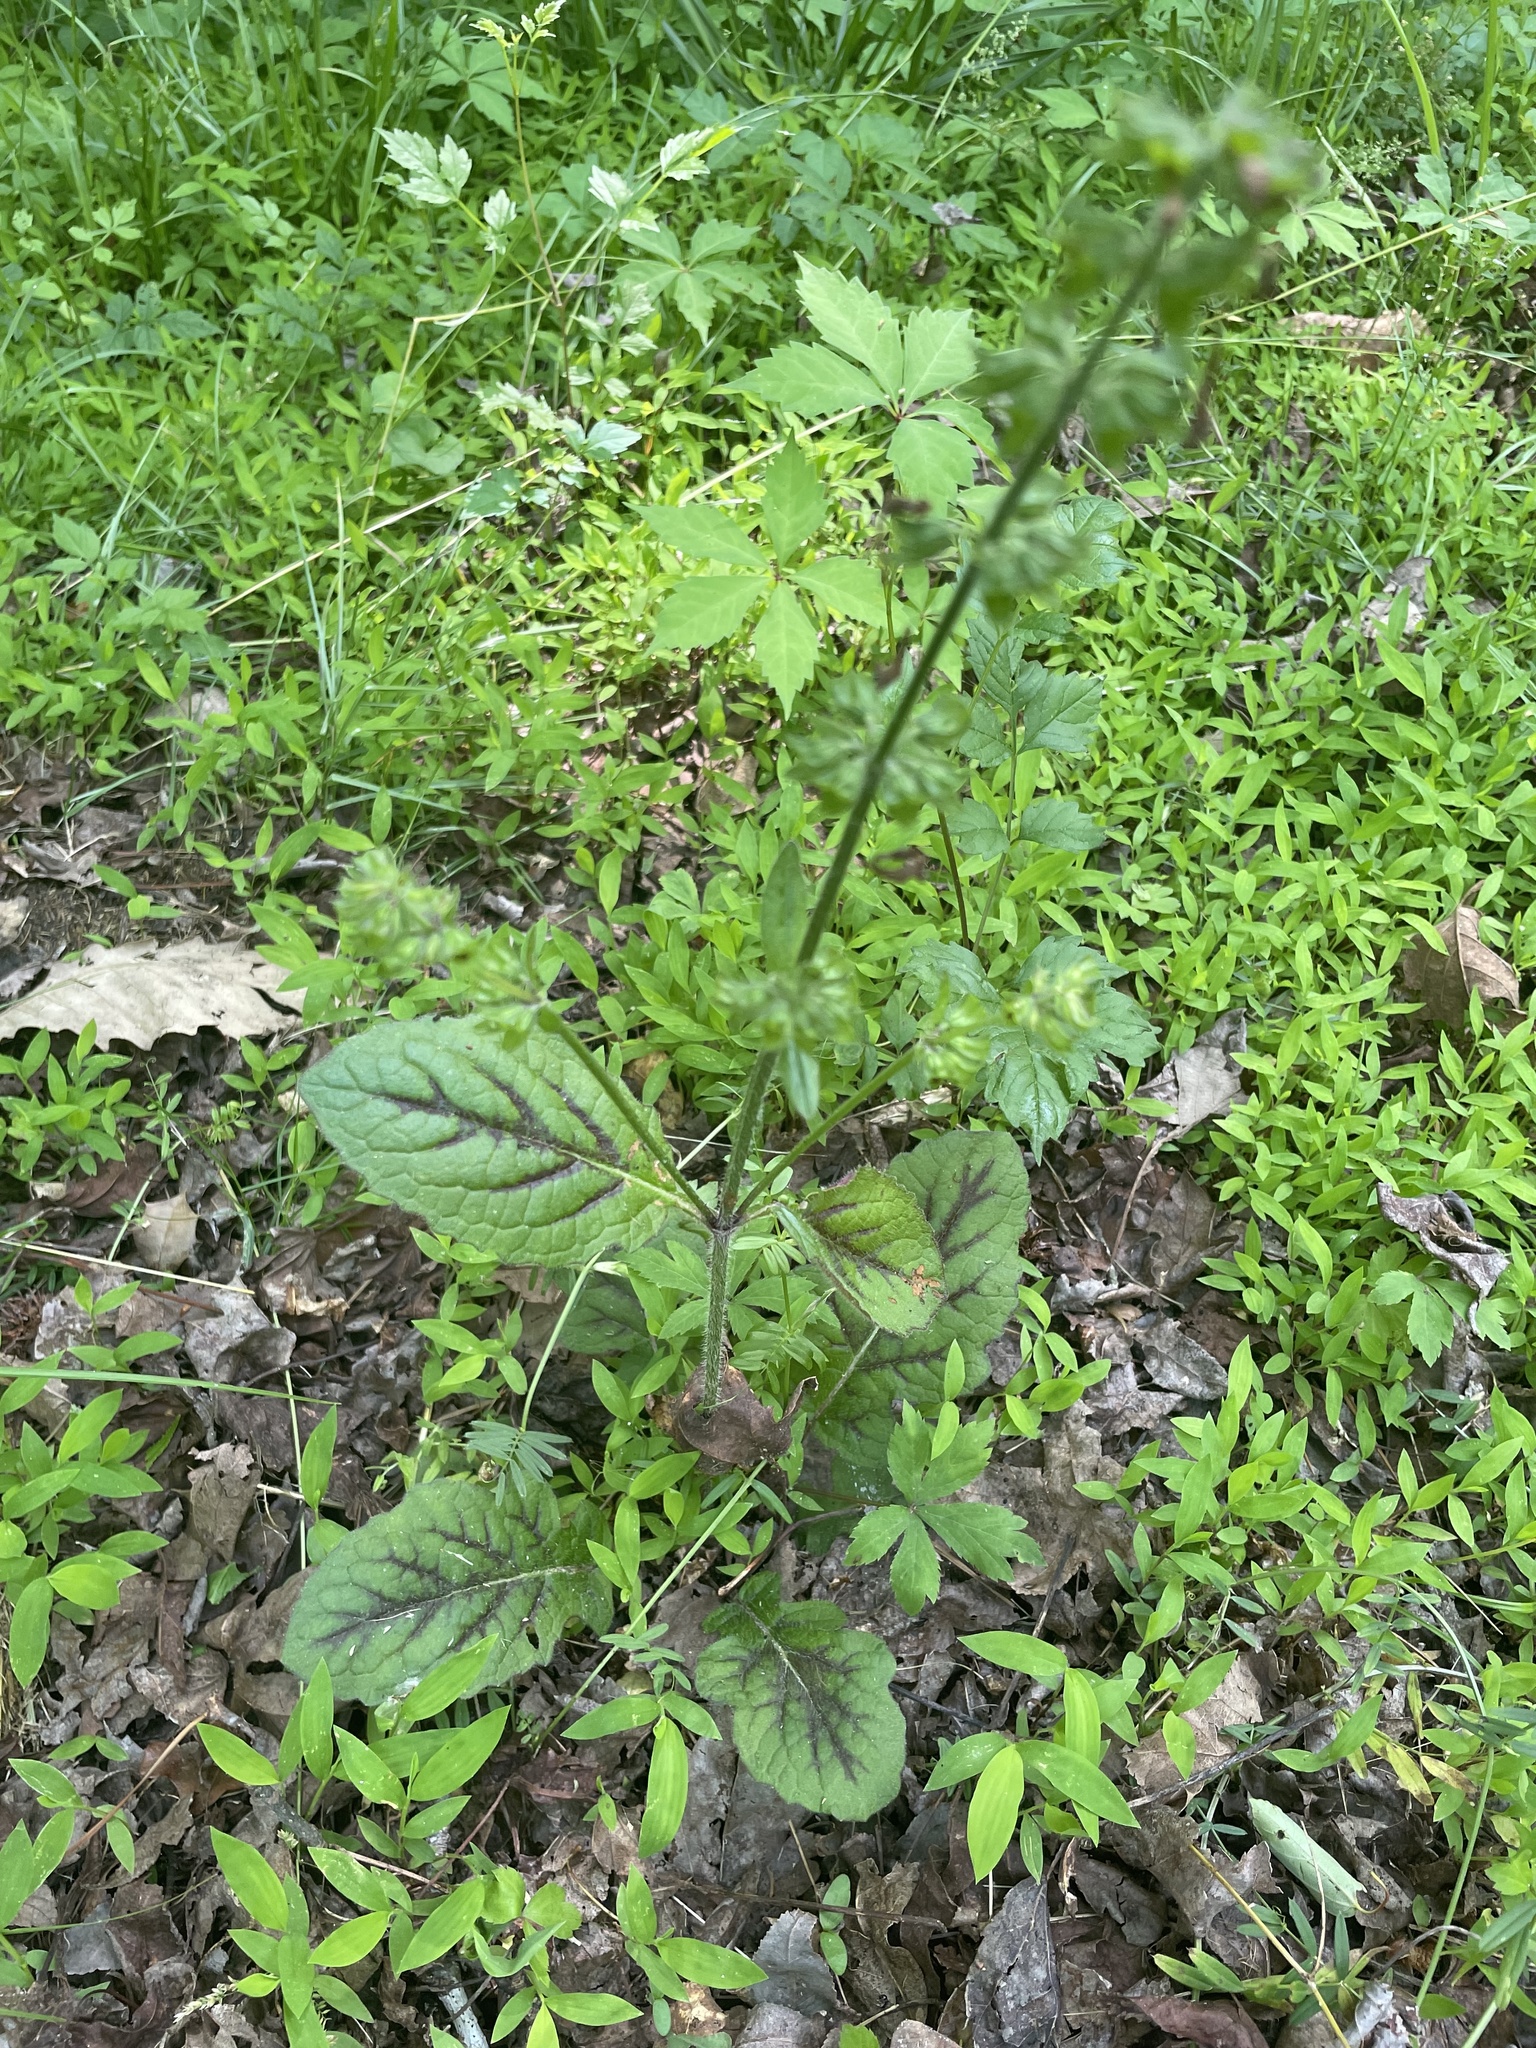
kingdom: Plantae
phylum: Tracheophyta
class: Magnoliopsida
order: Lamiales
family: Lamiaceae
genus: Salvia
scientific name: Salvia lyrata
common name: Cancerweed
